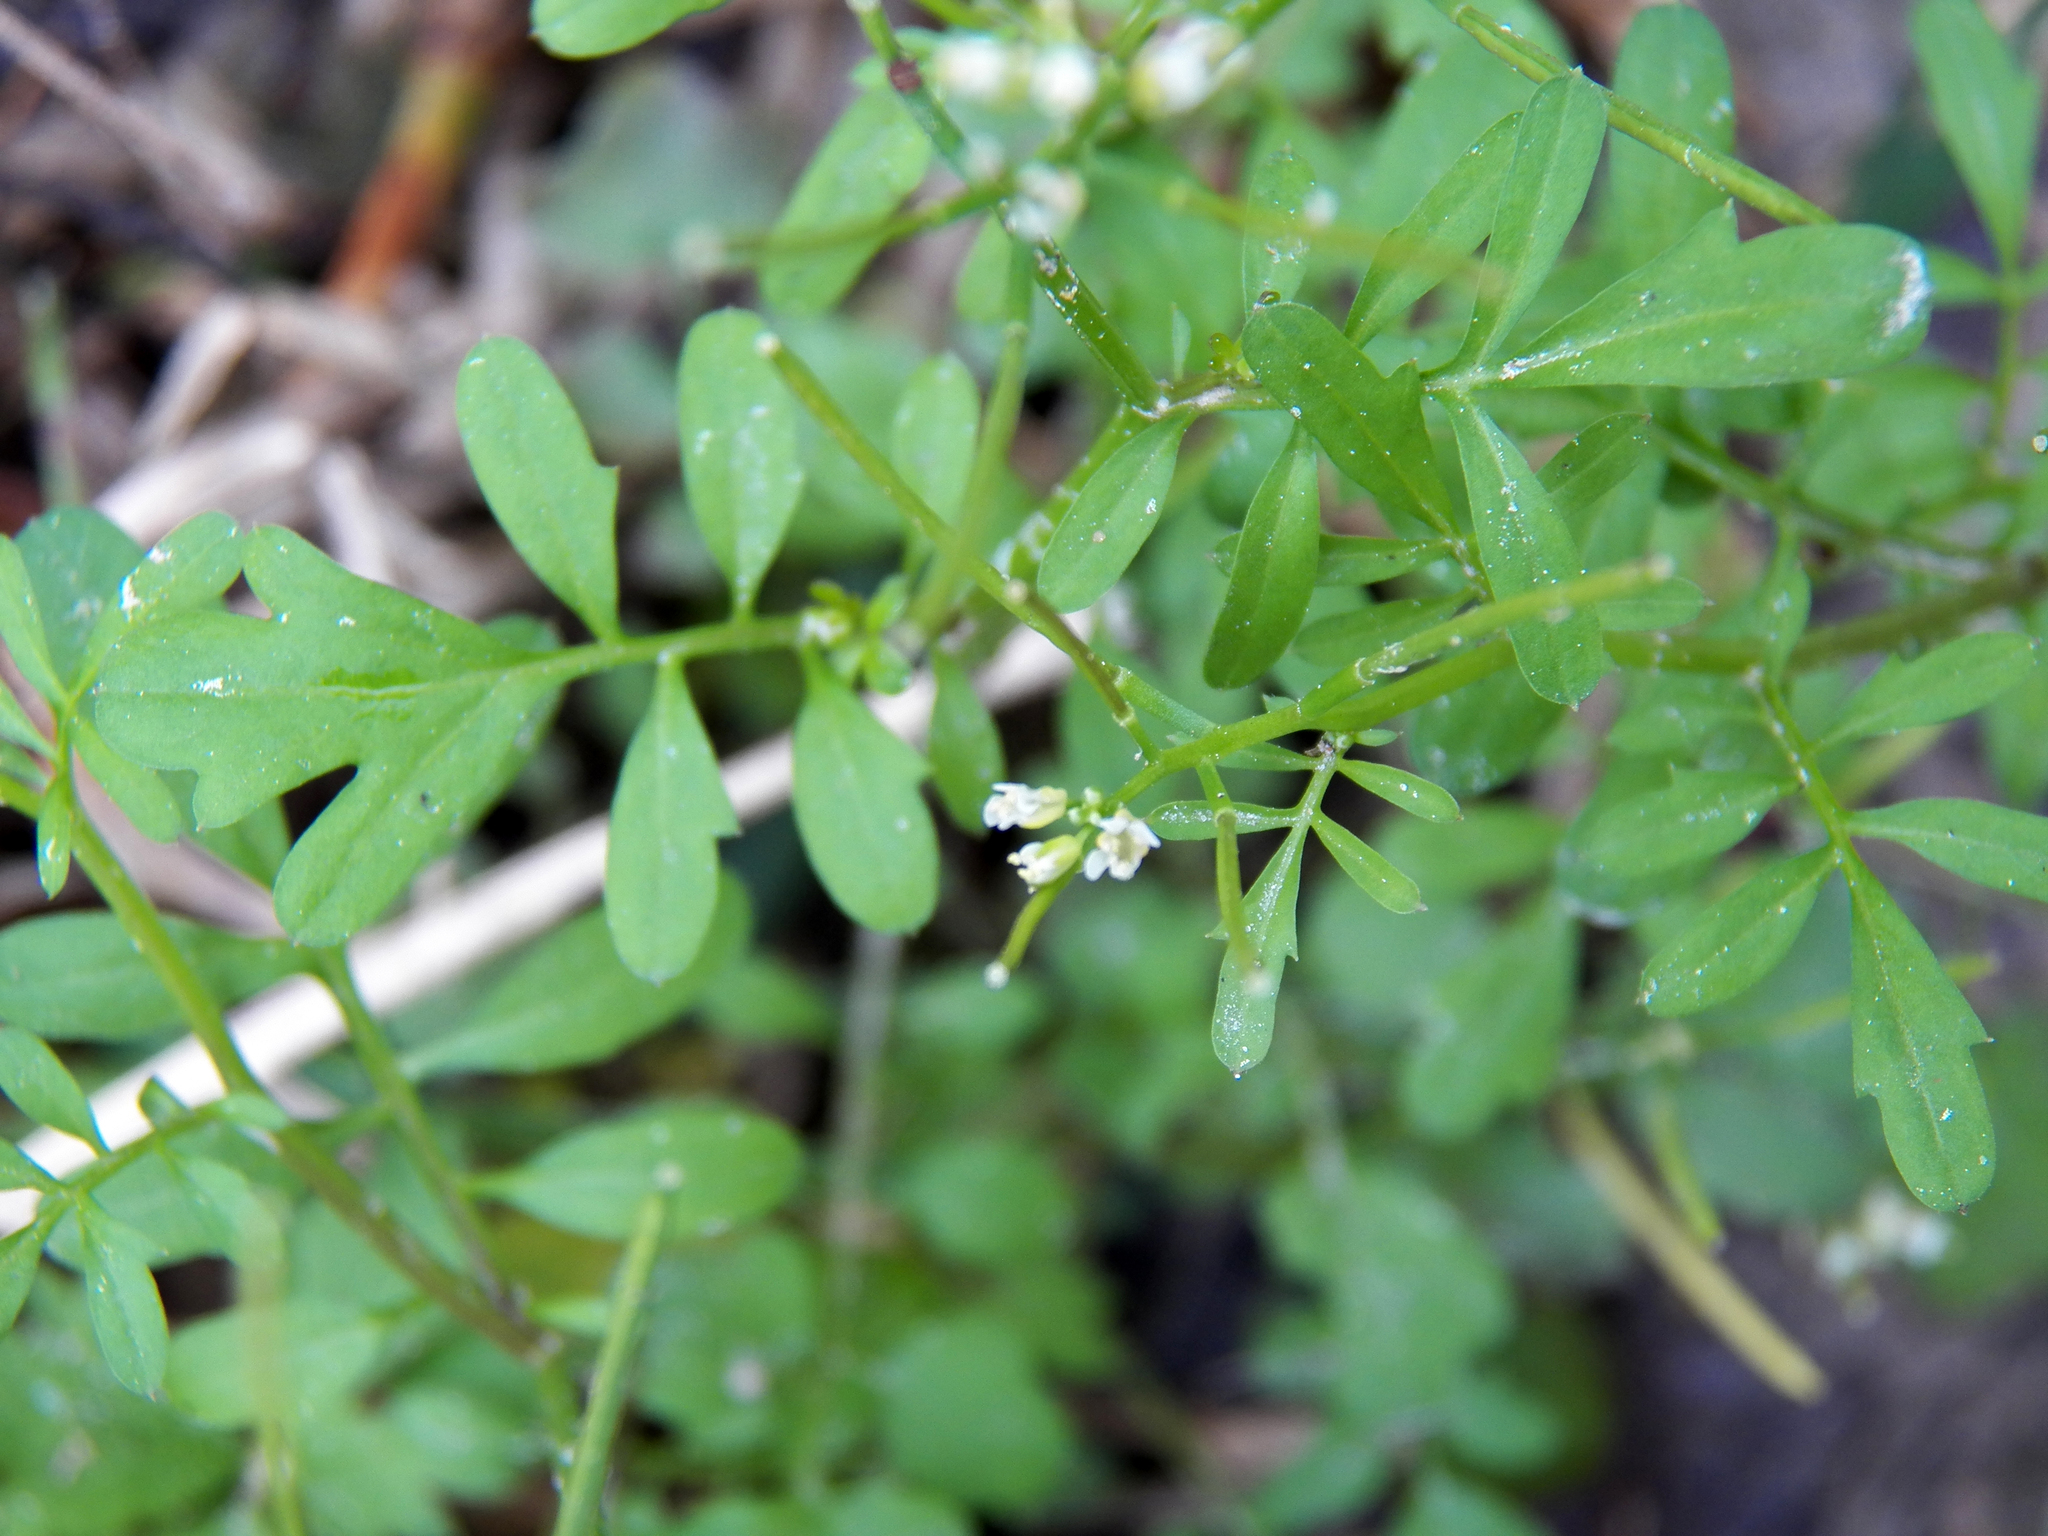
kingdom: Plantae
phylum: Tracheophyta
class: Magnoliopsida
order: Brassicales
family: Brassicaceae
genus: Cardamine
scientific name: Cardamine occulta
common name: Asian wavy bittercress
